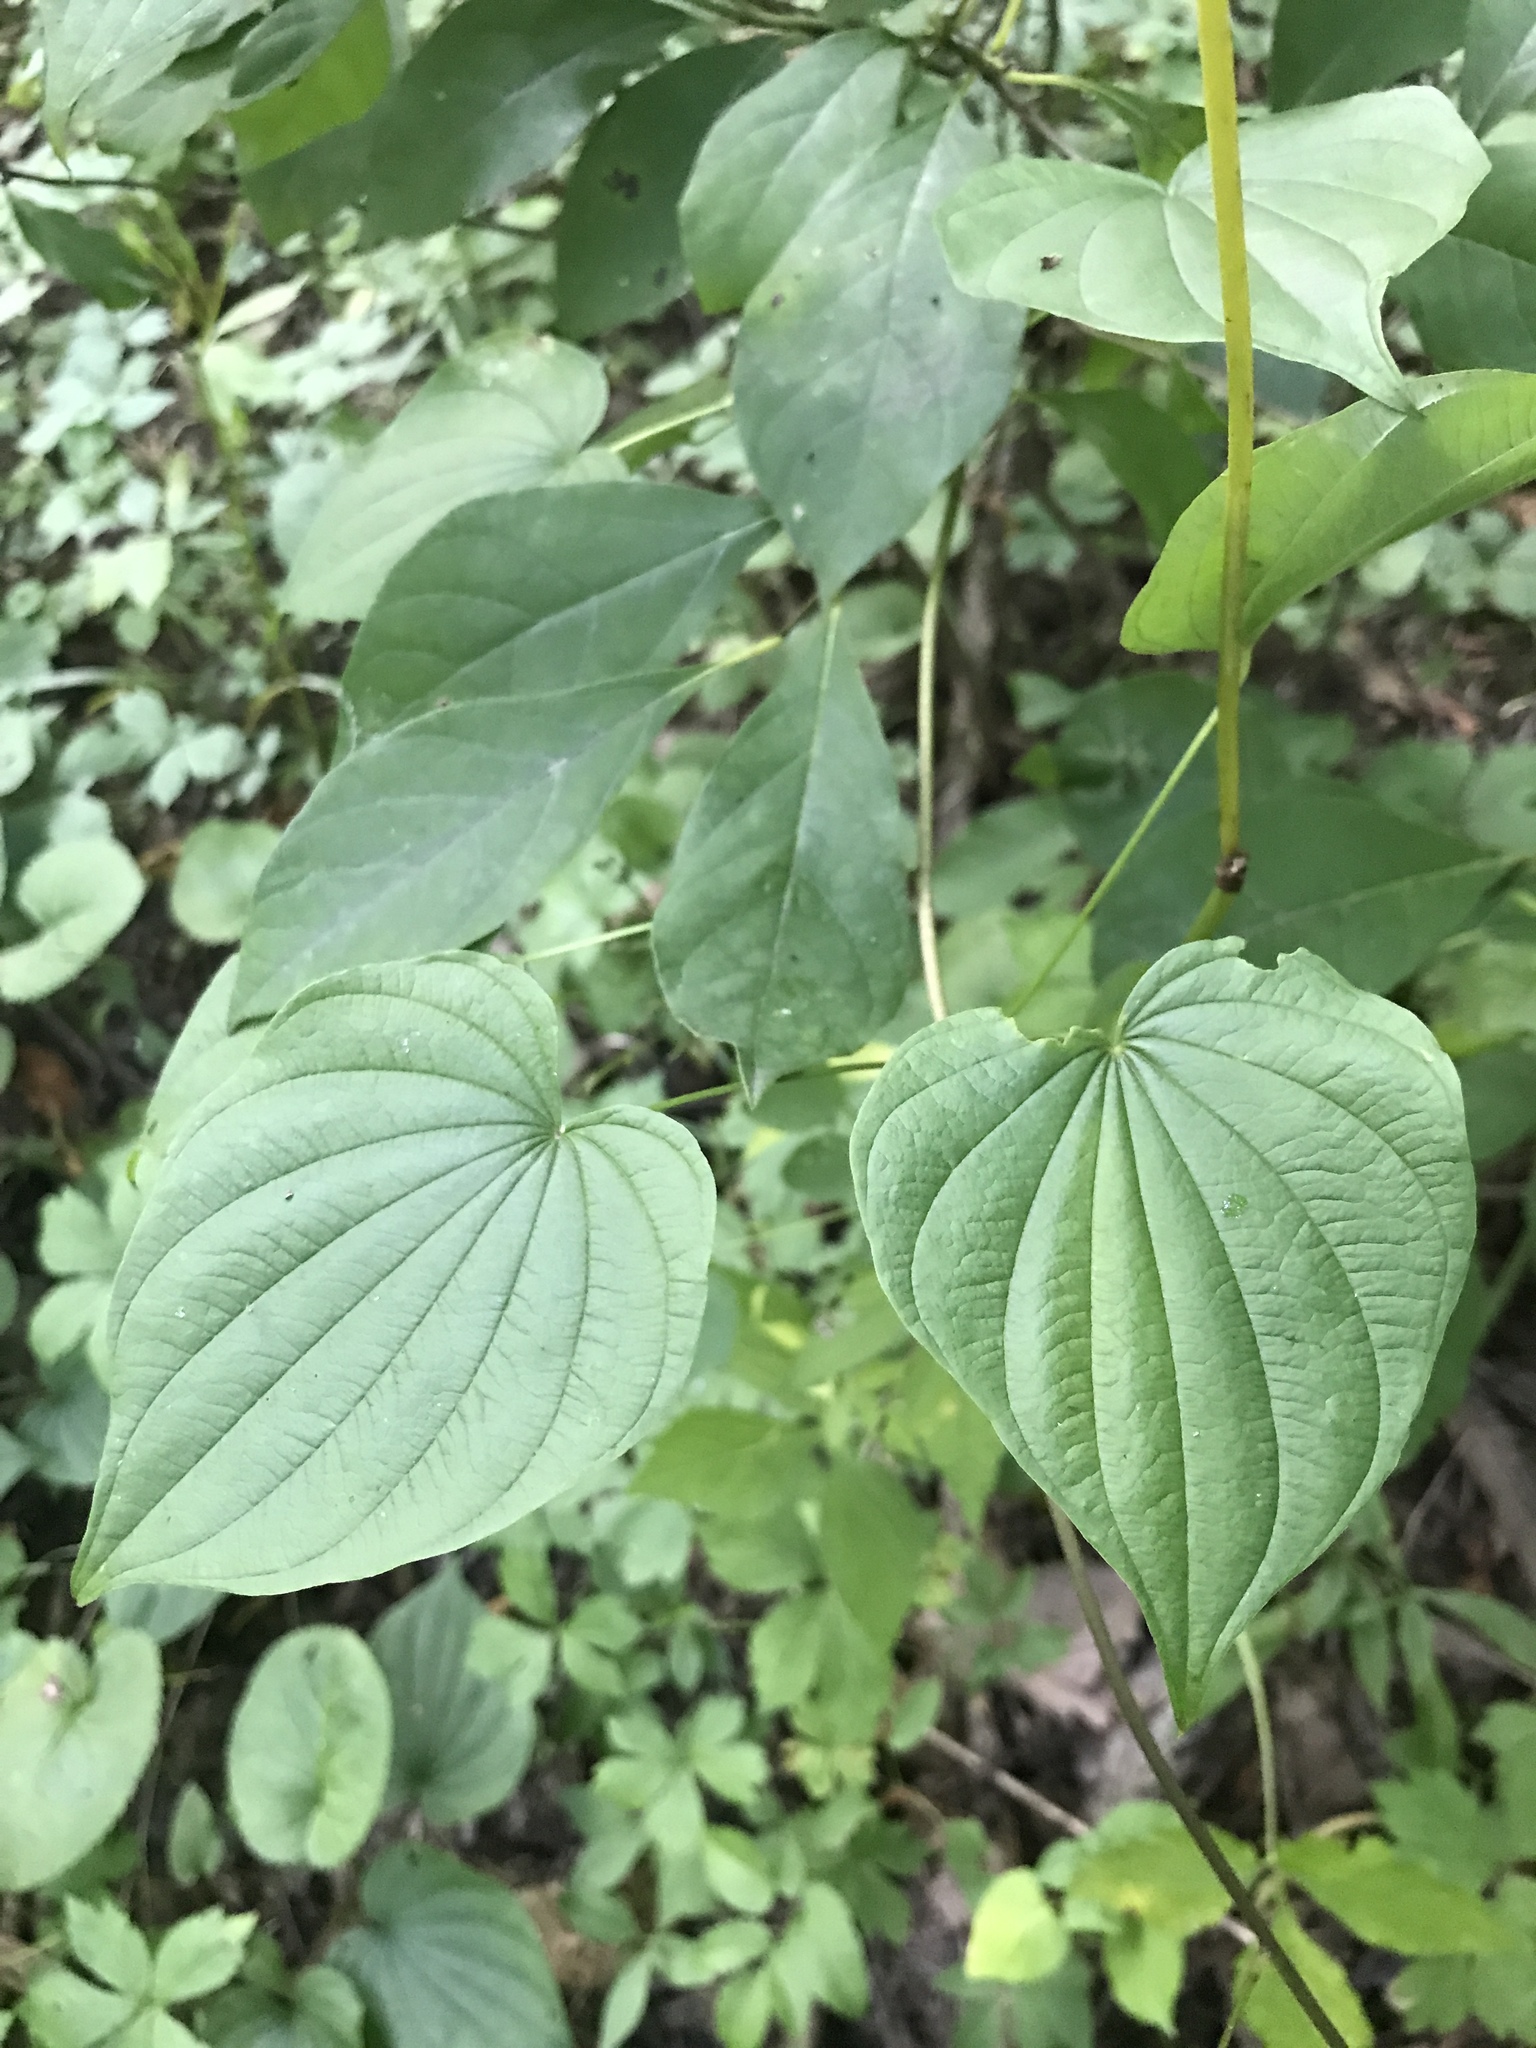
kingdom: Plantae
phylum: Tracheophyta
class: Liliopsida
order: Dioscoreales
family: Dioscoreaceae
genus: Dioscorea
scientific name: Dioscorea villosa
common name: Wild yam
